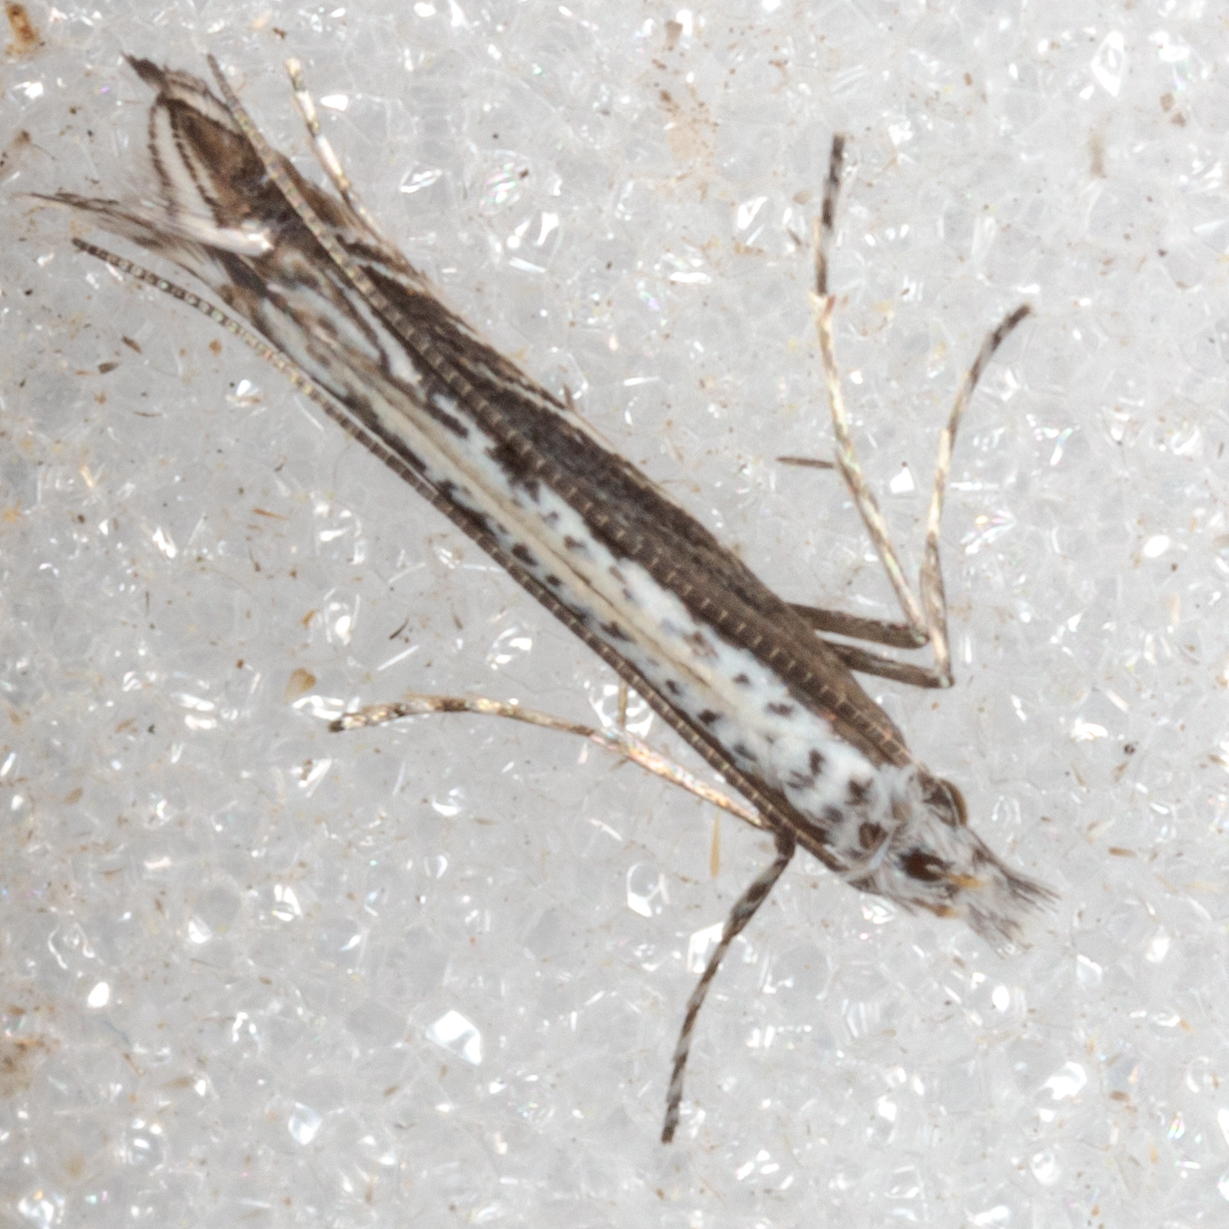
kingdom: Plantae
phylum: Rhodophyta
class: Florideophyceae
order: Gracilariales
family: Gracilariaceae
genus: Gracilaria
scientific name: Gracilaria
